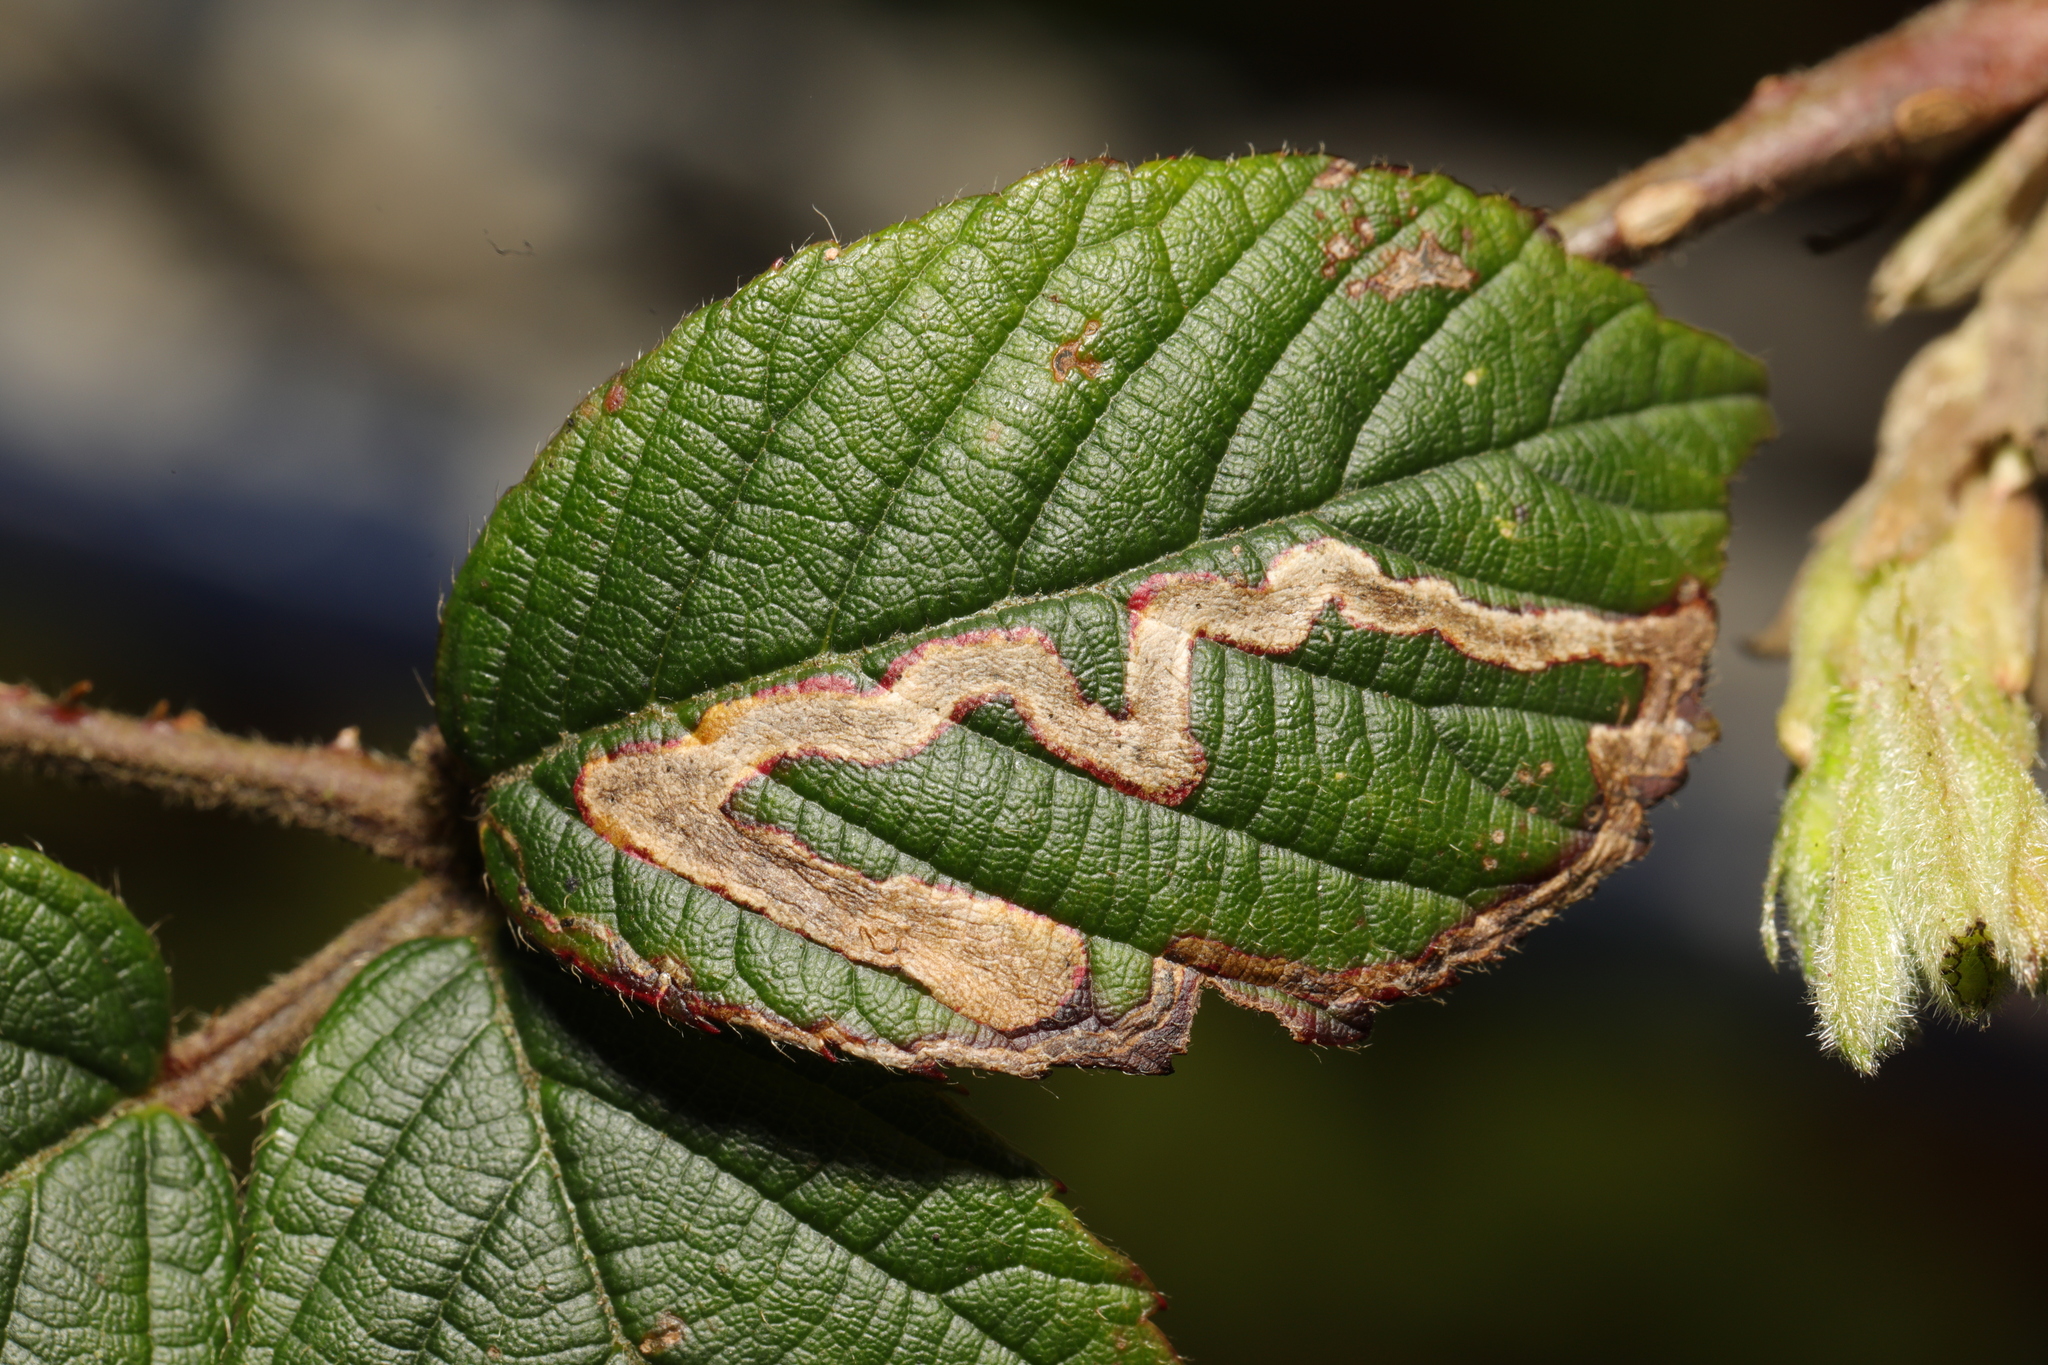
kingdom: Animalia
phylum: Arthropoda
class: Insecta
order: Lepidoptera
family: Nepticulidae
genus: Stigmella
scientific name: Stigmella aurella
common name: Golden pigmy
